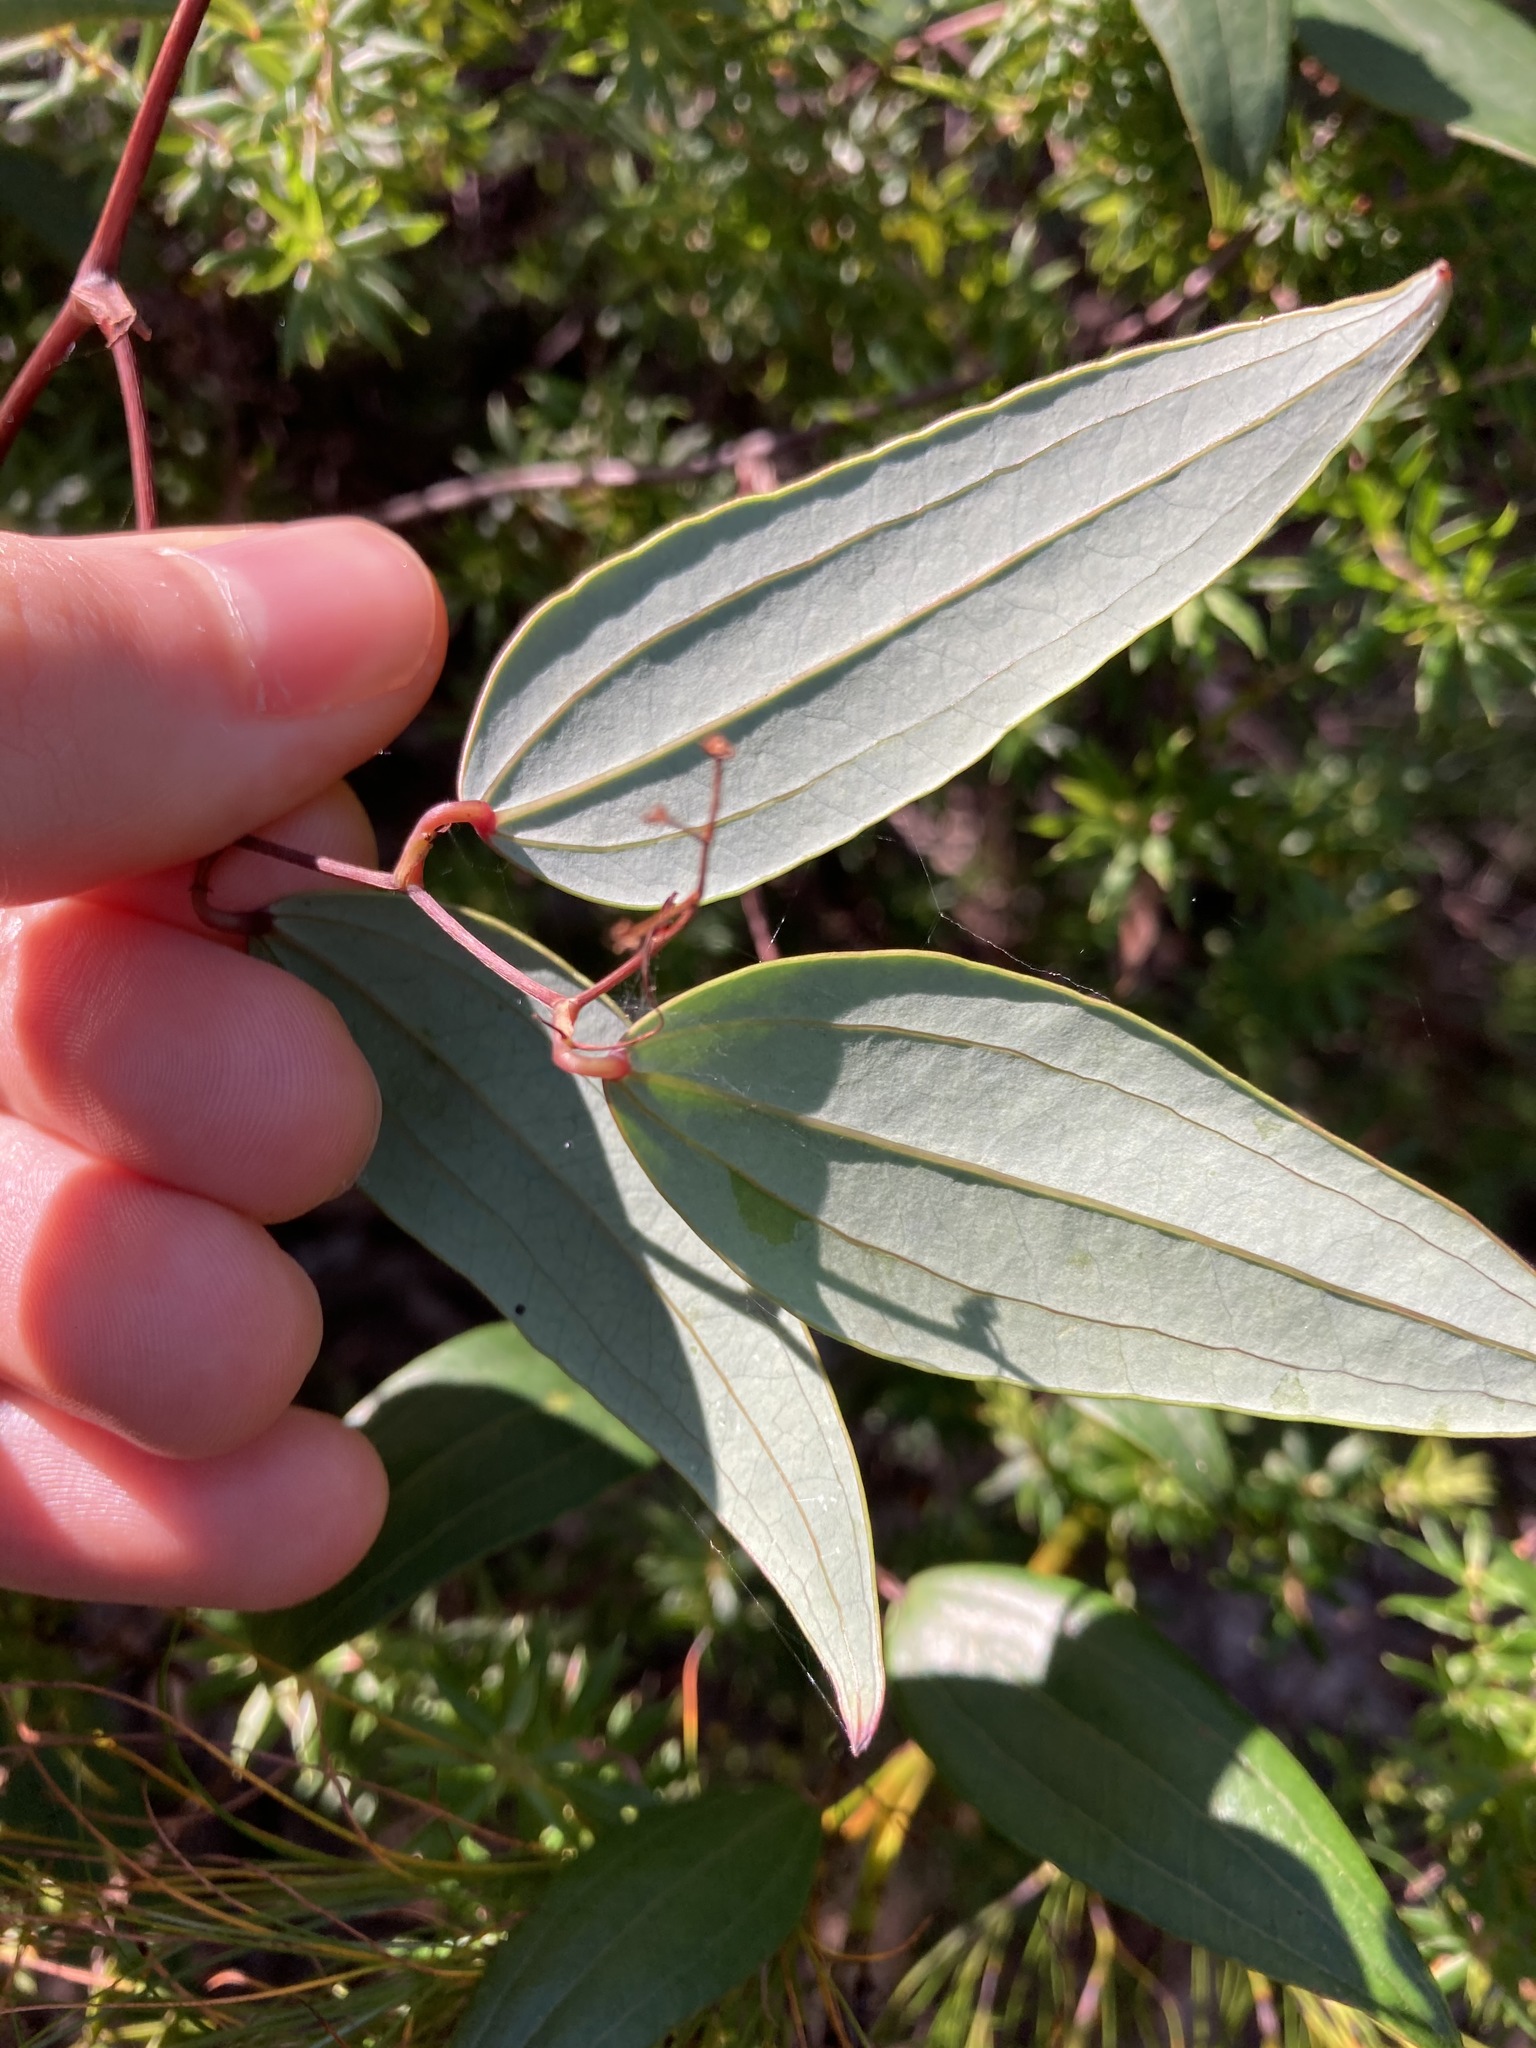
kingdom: Plantae
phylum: Tracheophyta
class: Liliopsida
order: Liliales
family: Smilacaceae
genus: Smilax
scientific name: Smilax glyciphylla
